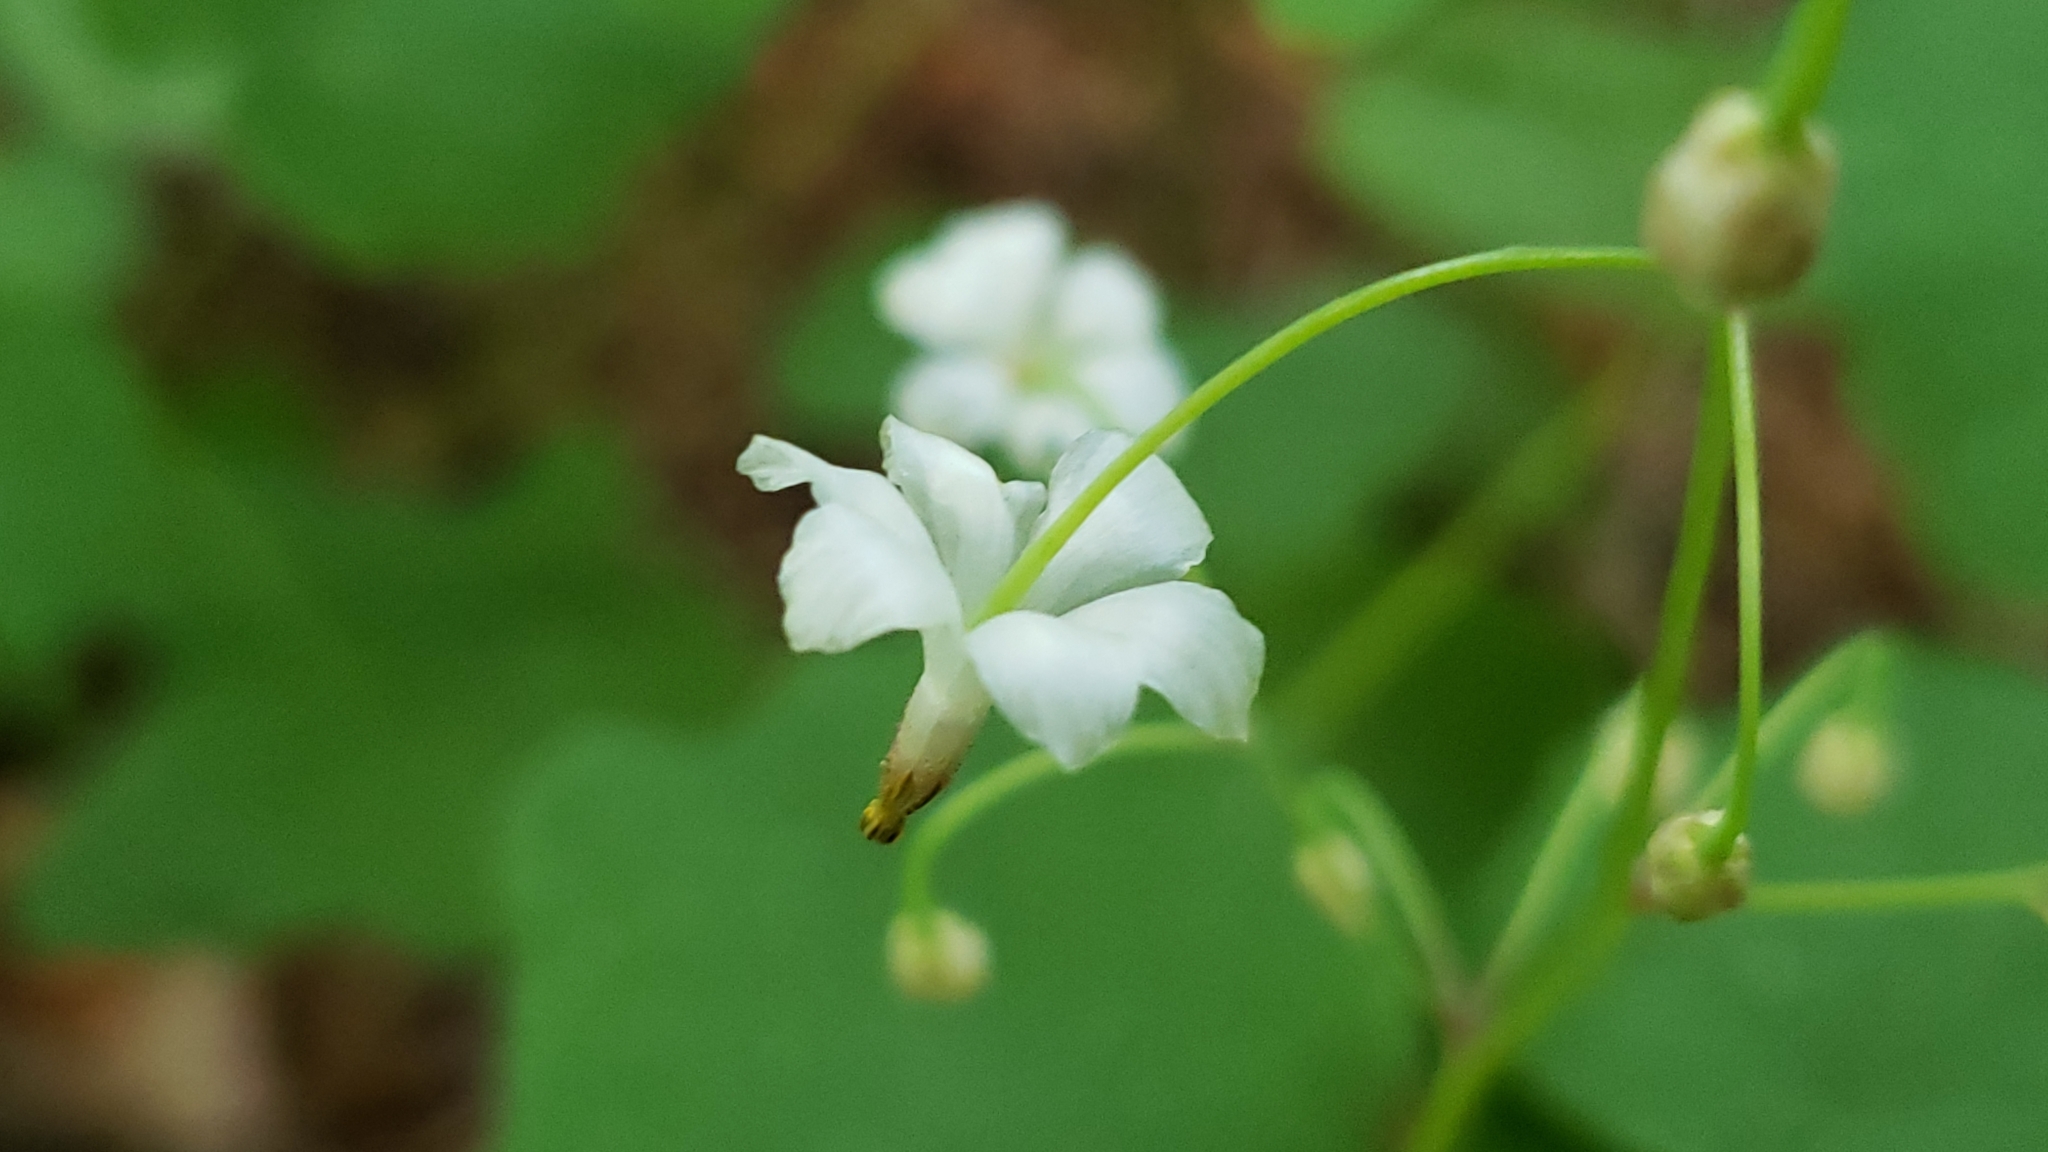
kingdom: Plantae
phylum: Tracheophyta
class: Magnoliopsida
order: Ranunculales
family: Berberidaceae
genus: Vancouveria
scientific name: Vancouveria hexandra
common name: Northern inside-out-flower
